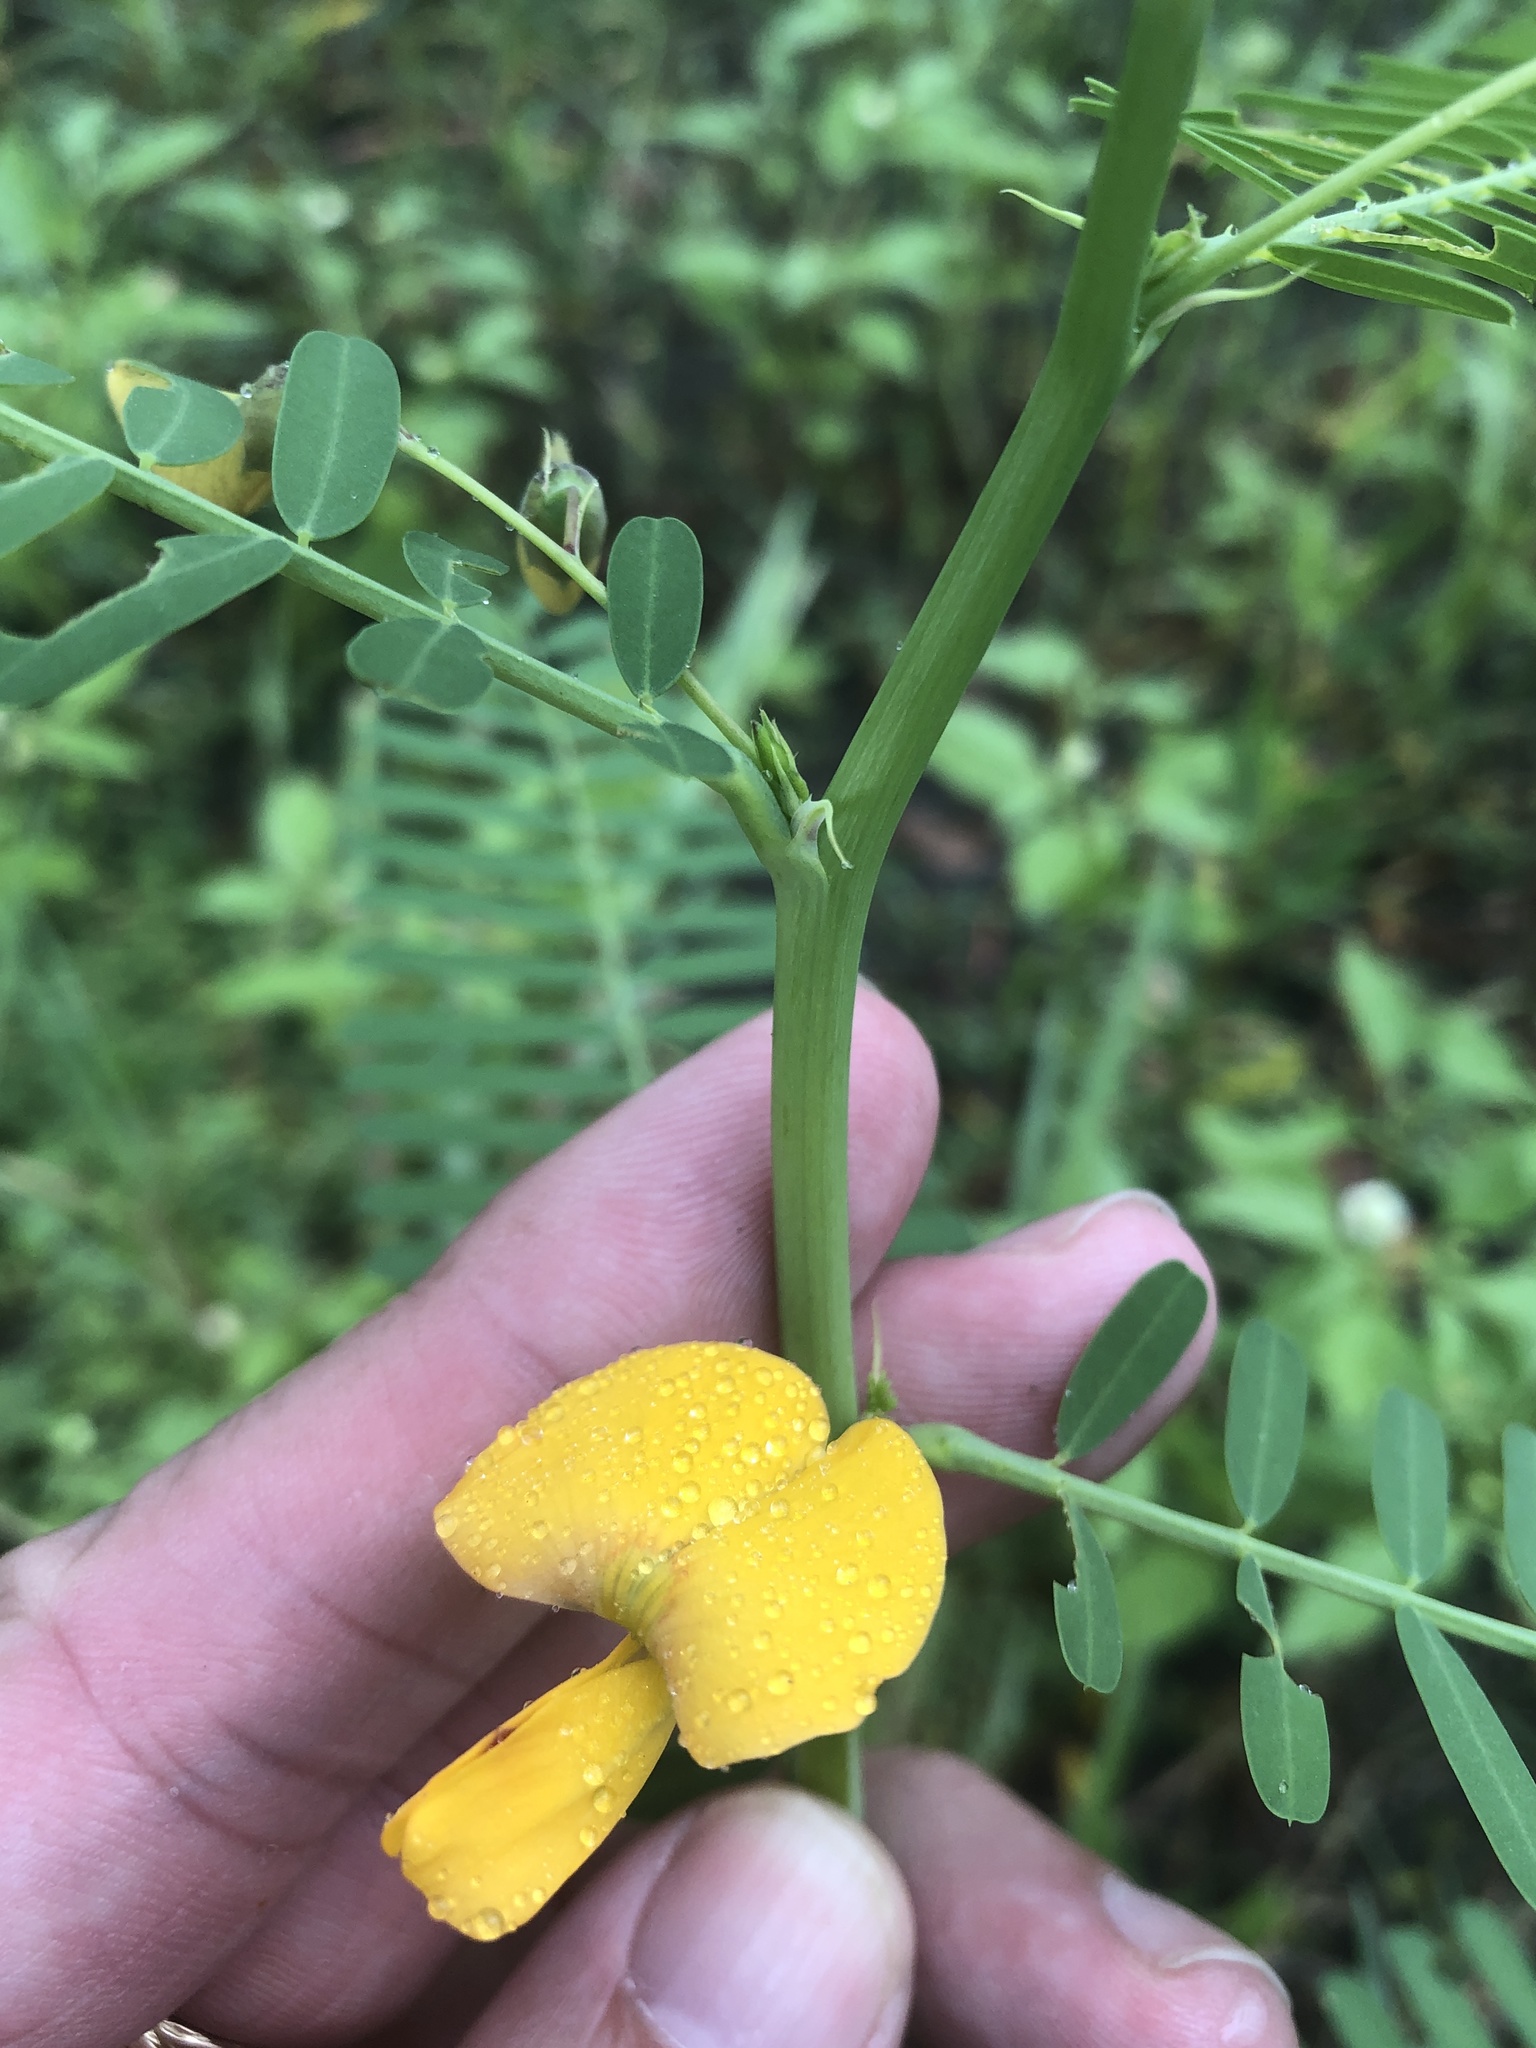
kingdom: Plantae
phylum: Tracheophyta
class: Magnoliopsida
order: Fabales
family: Fabaceae
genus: Sesbania
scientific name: Sesbania herbacea
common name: Bigpod sesbania
